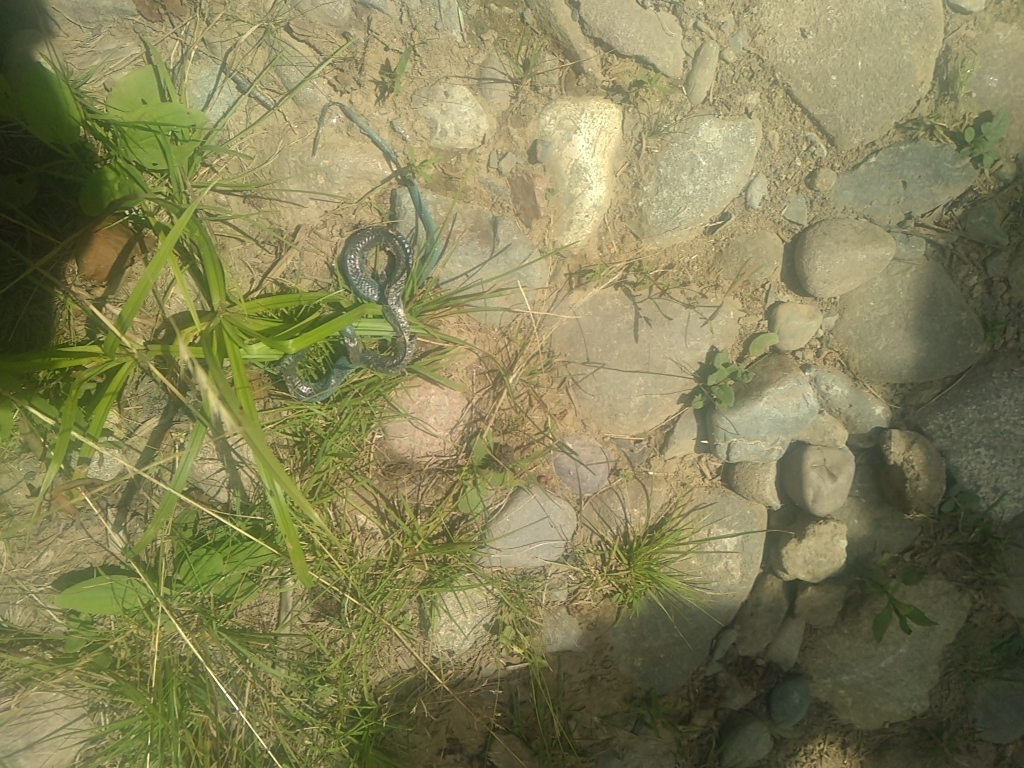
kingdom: Animalia
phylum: Chordata
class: Squamata
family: Colubridae
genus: Opheodrys
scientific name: Opheodrys vernalis
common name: Smooth green snake
